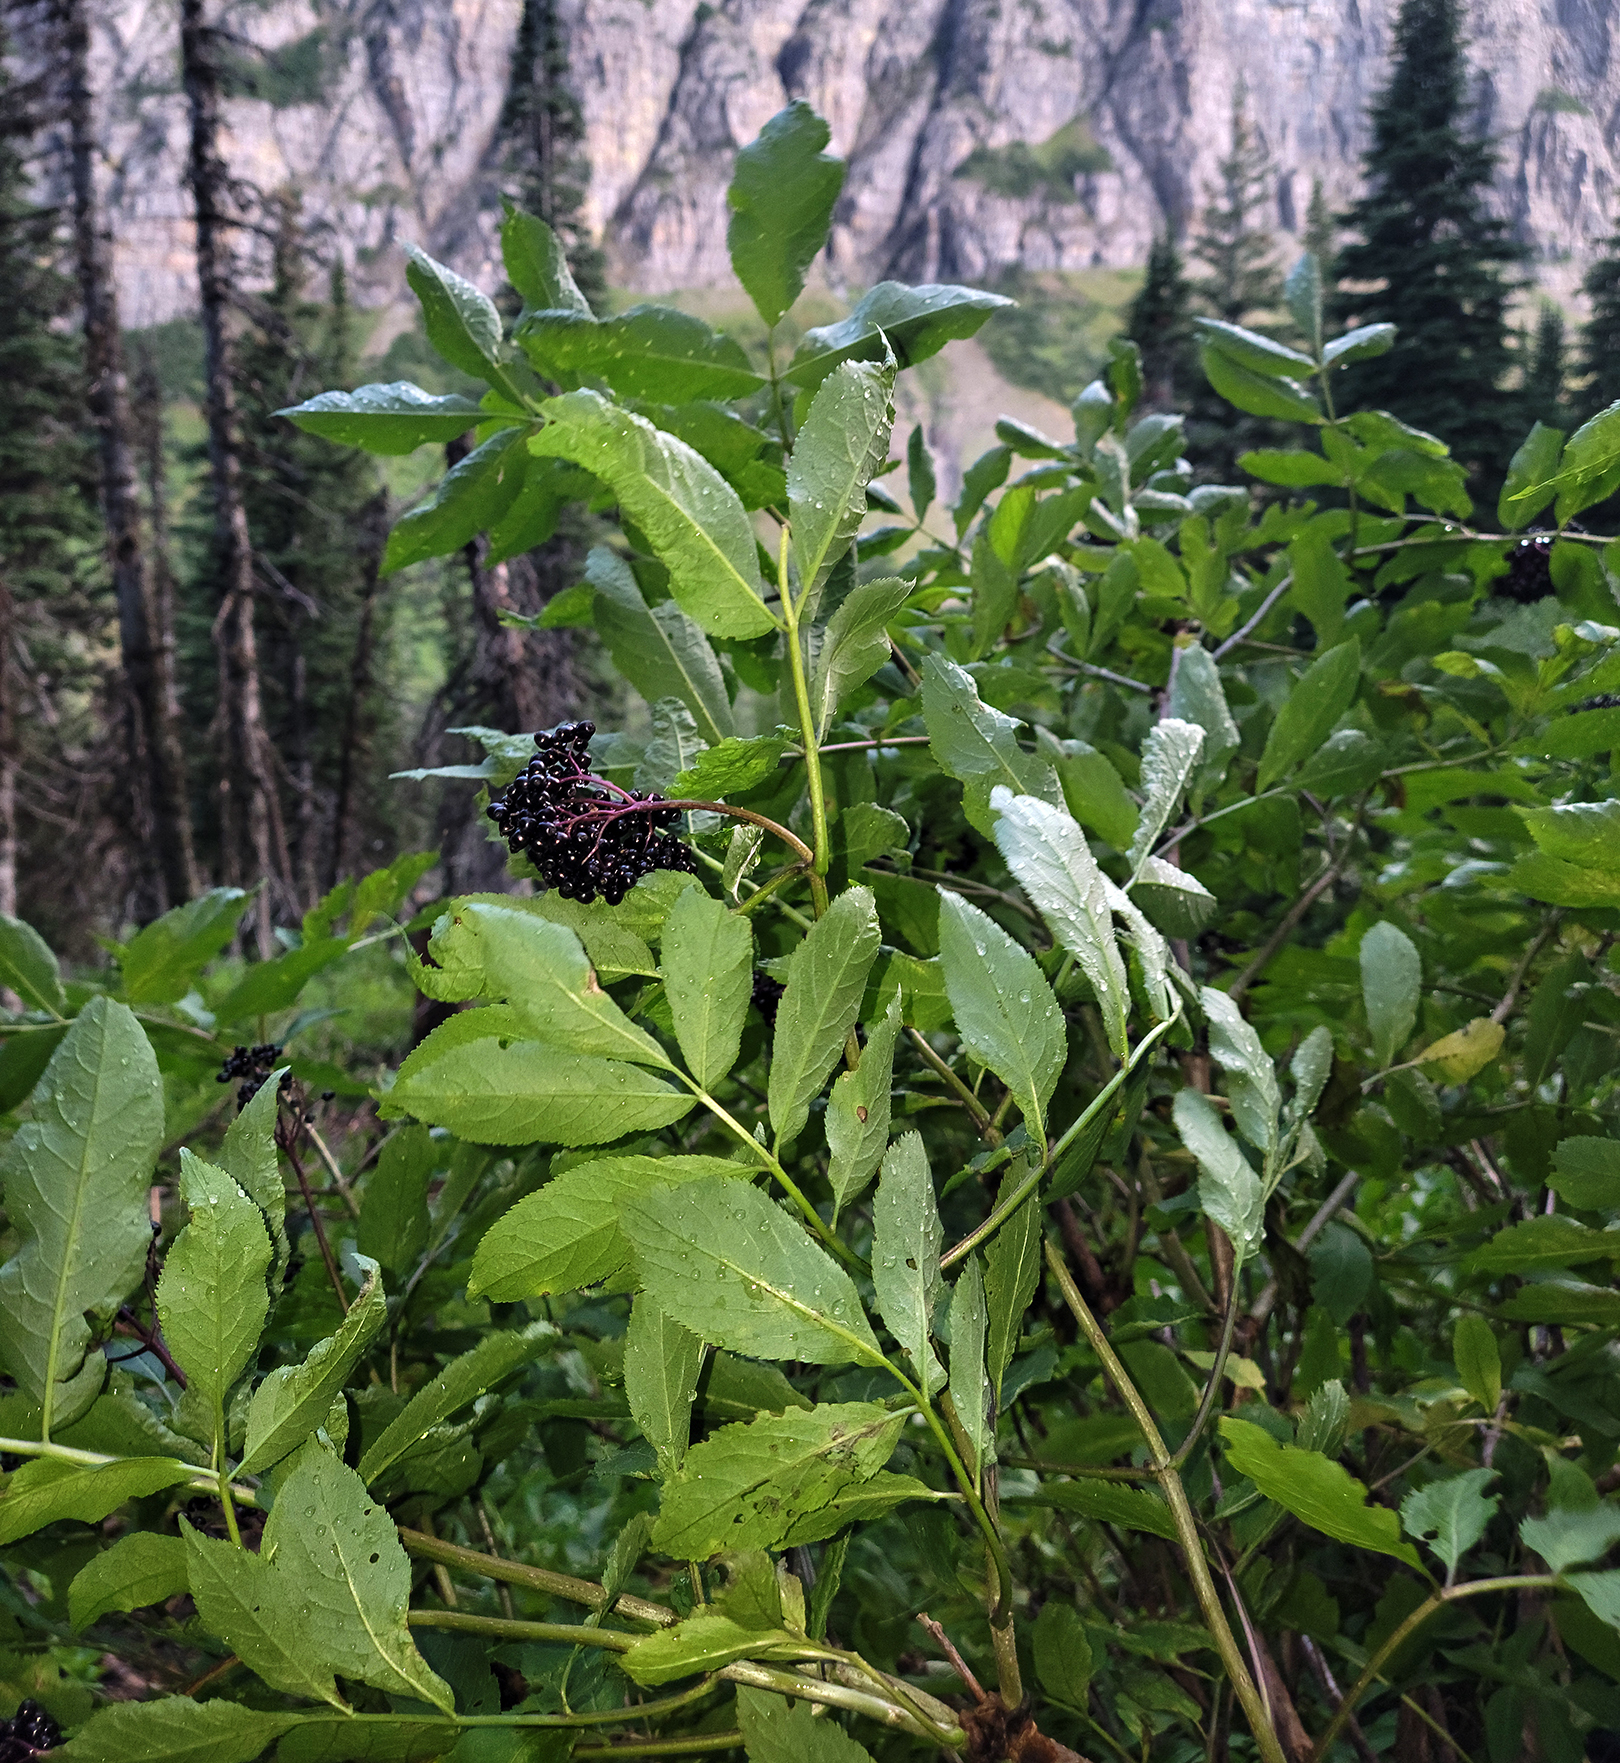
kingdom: Plantae
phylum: Tracheophyta
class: Magnoliopsida
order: Dipsacales
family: Viburnaceae
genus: Sambucus
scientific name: Sambucus racemosa
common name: Red-berried elder
